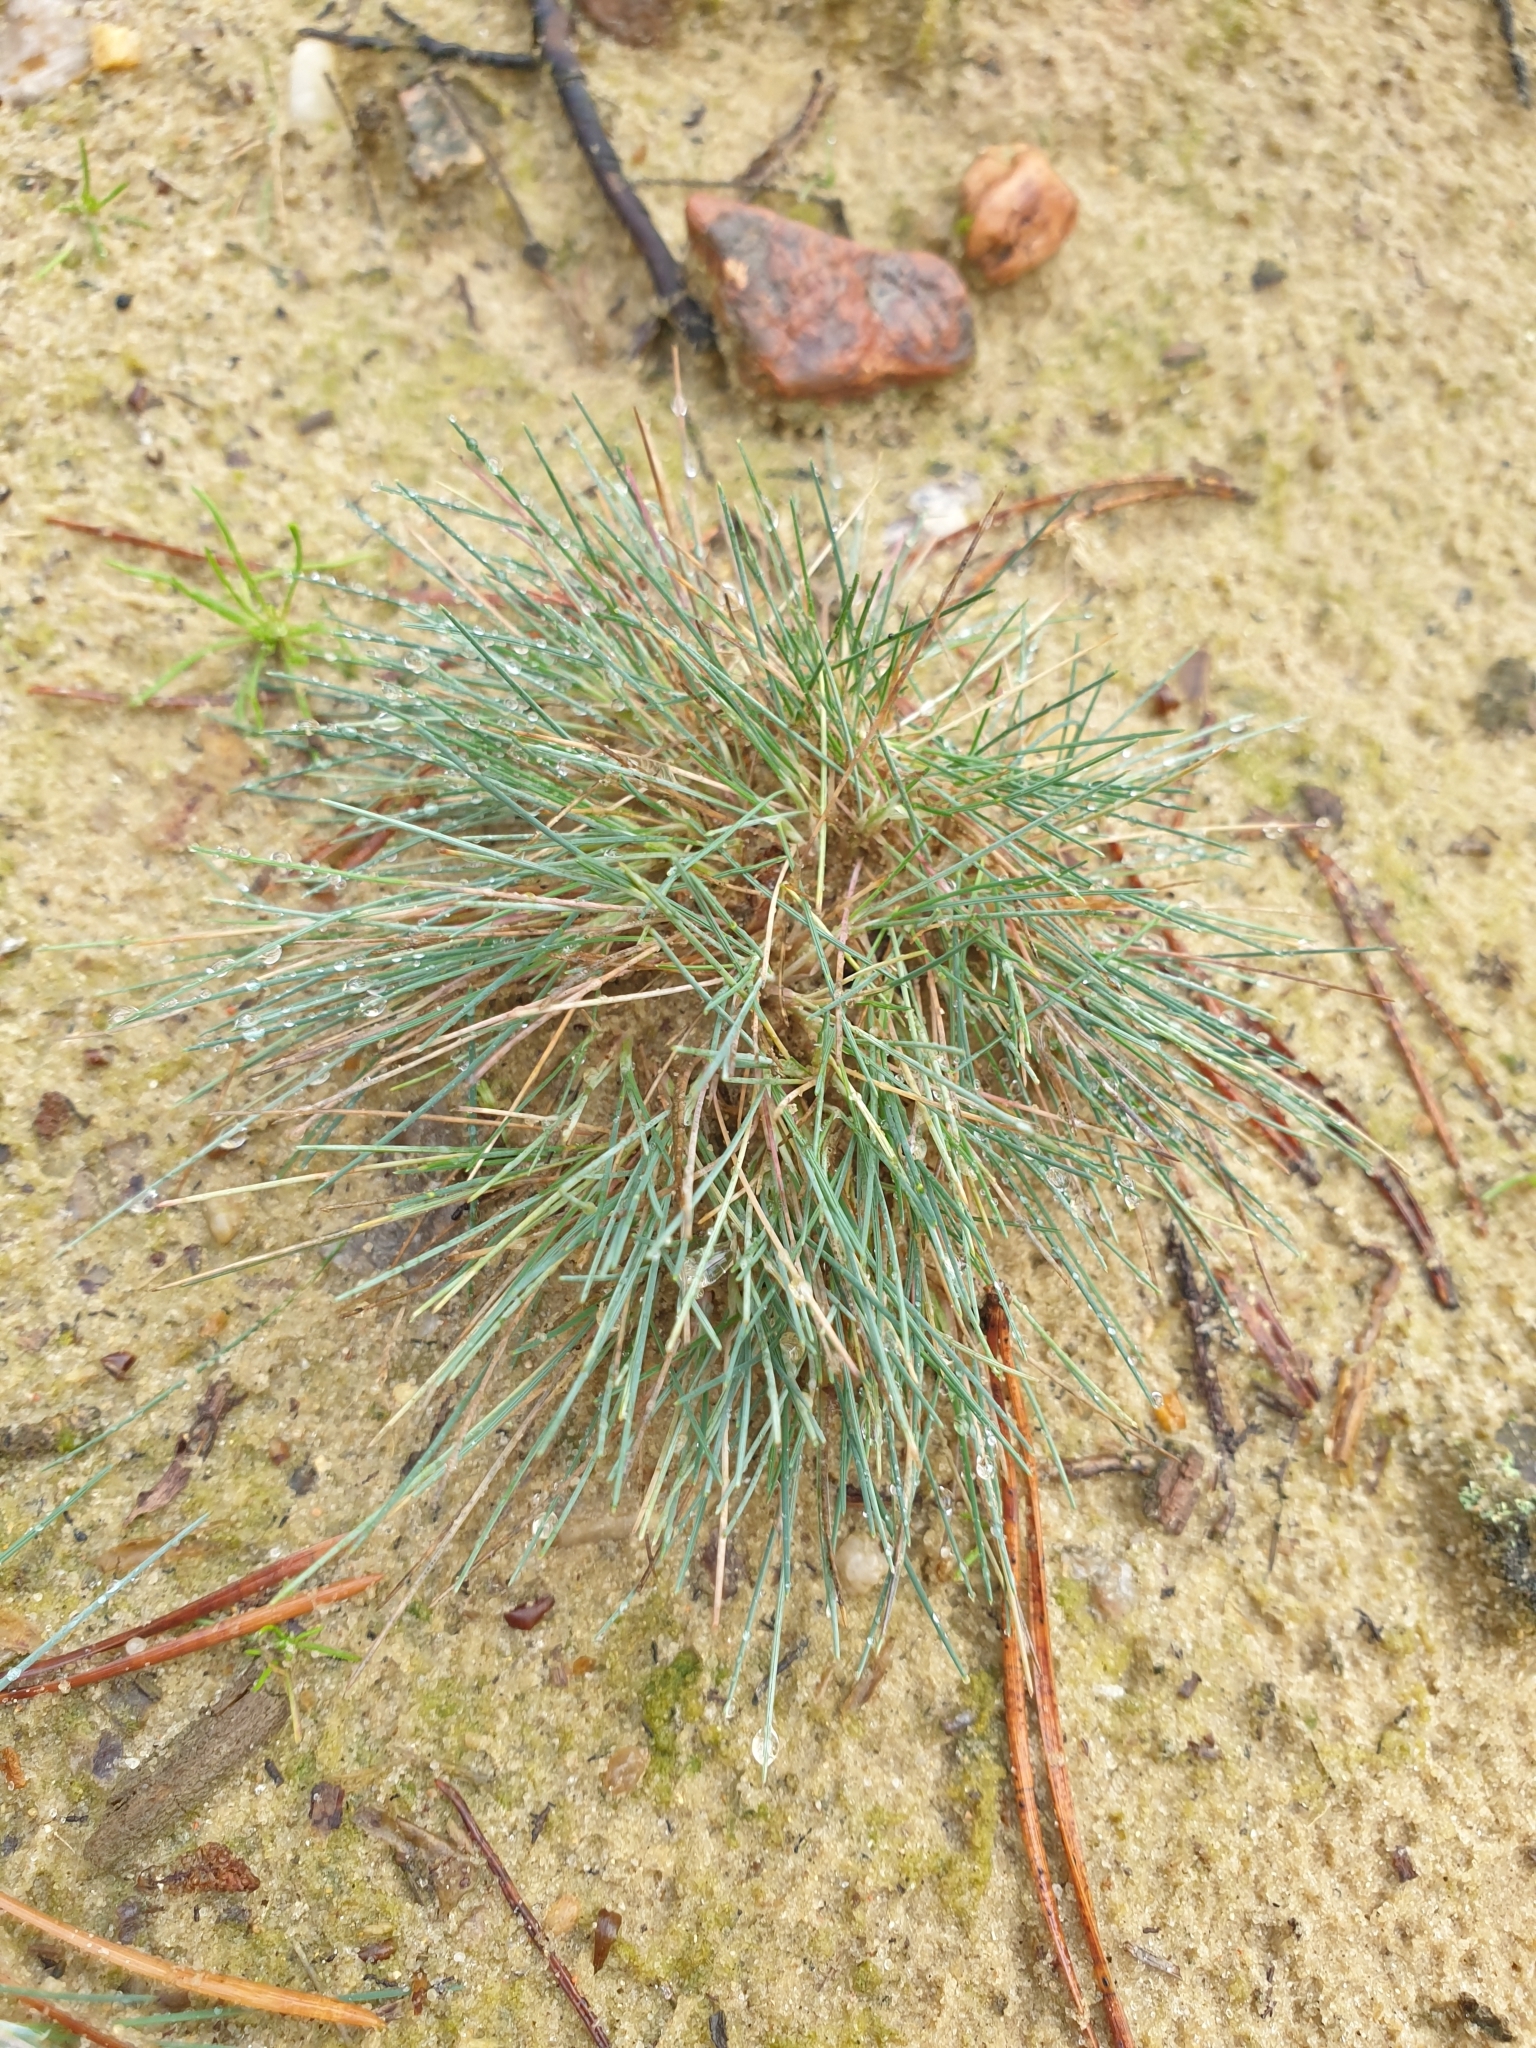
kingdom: Plantae
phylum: Tracheophyta
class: Liliopsida
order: Poales
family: Poaceae
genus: Corynephorus
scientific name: Corynephorus canescens
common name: Grey hair-grass
